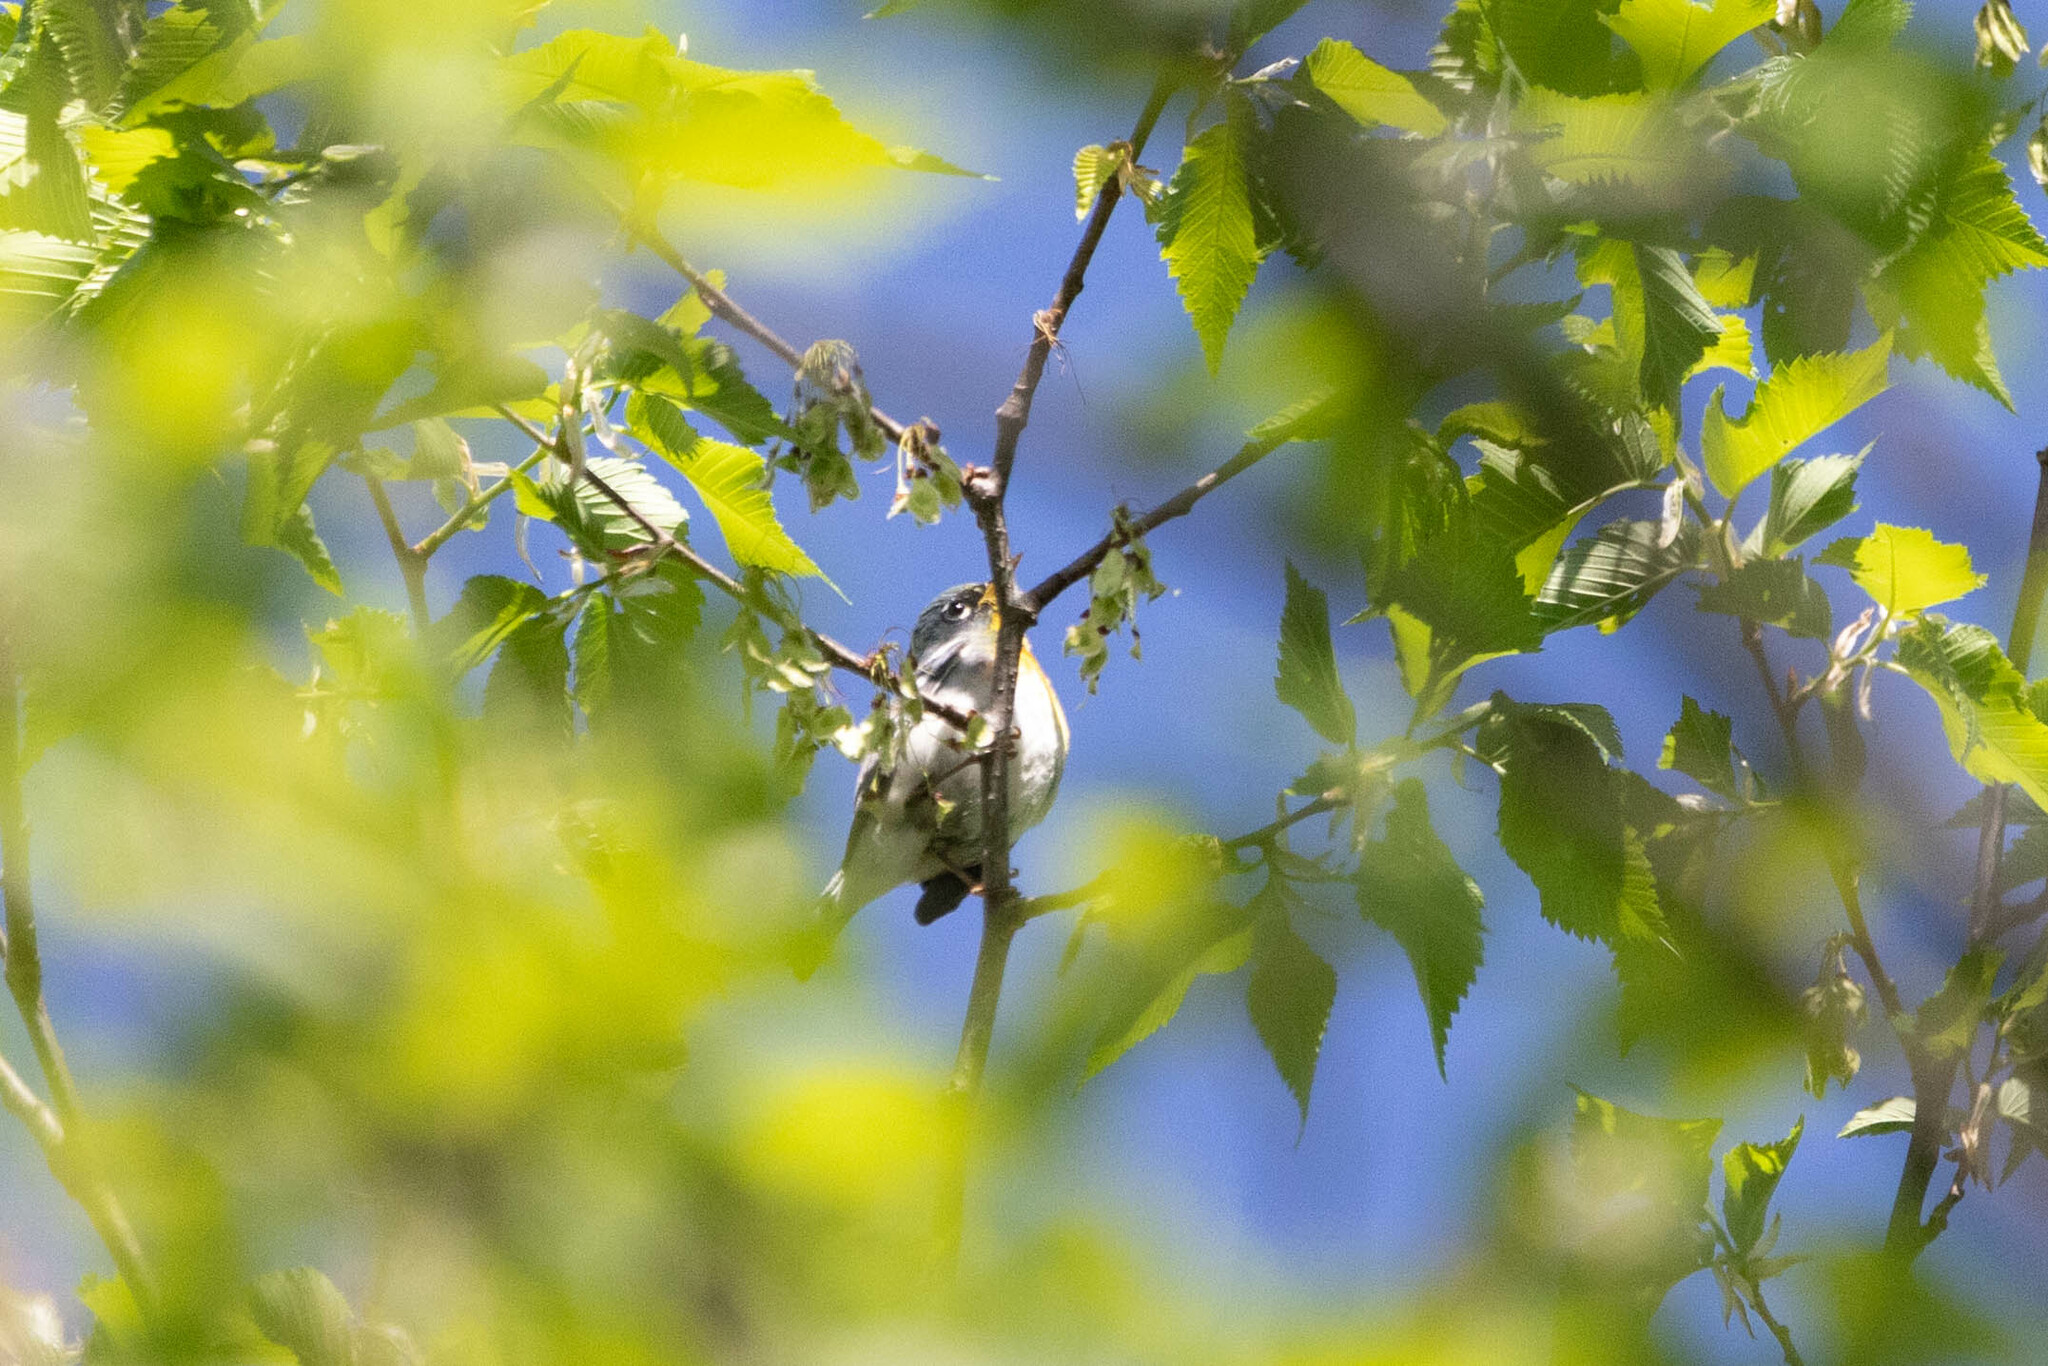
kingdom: Animalia
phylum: Chordata
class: Aves
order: Passeriformes
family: Parulidae
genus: Setophaga
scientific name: Setophaga americana
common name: Northern parula
